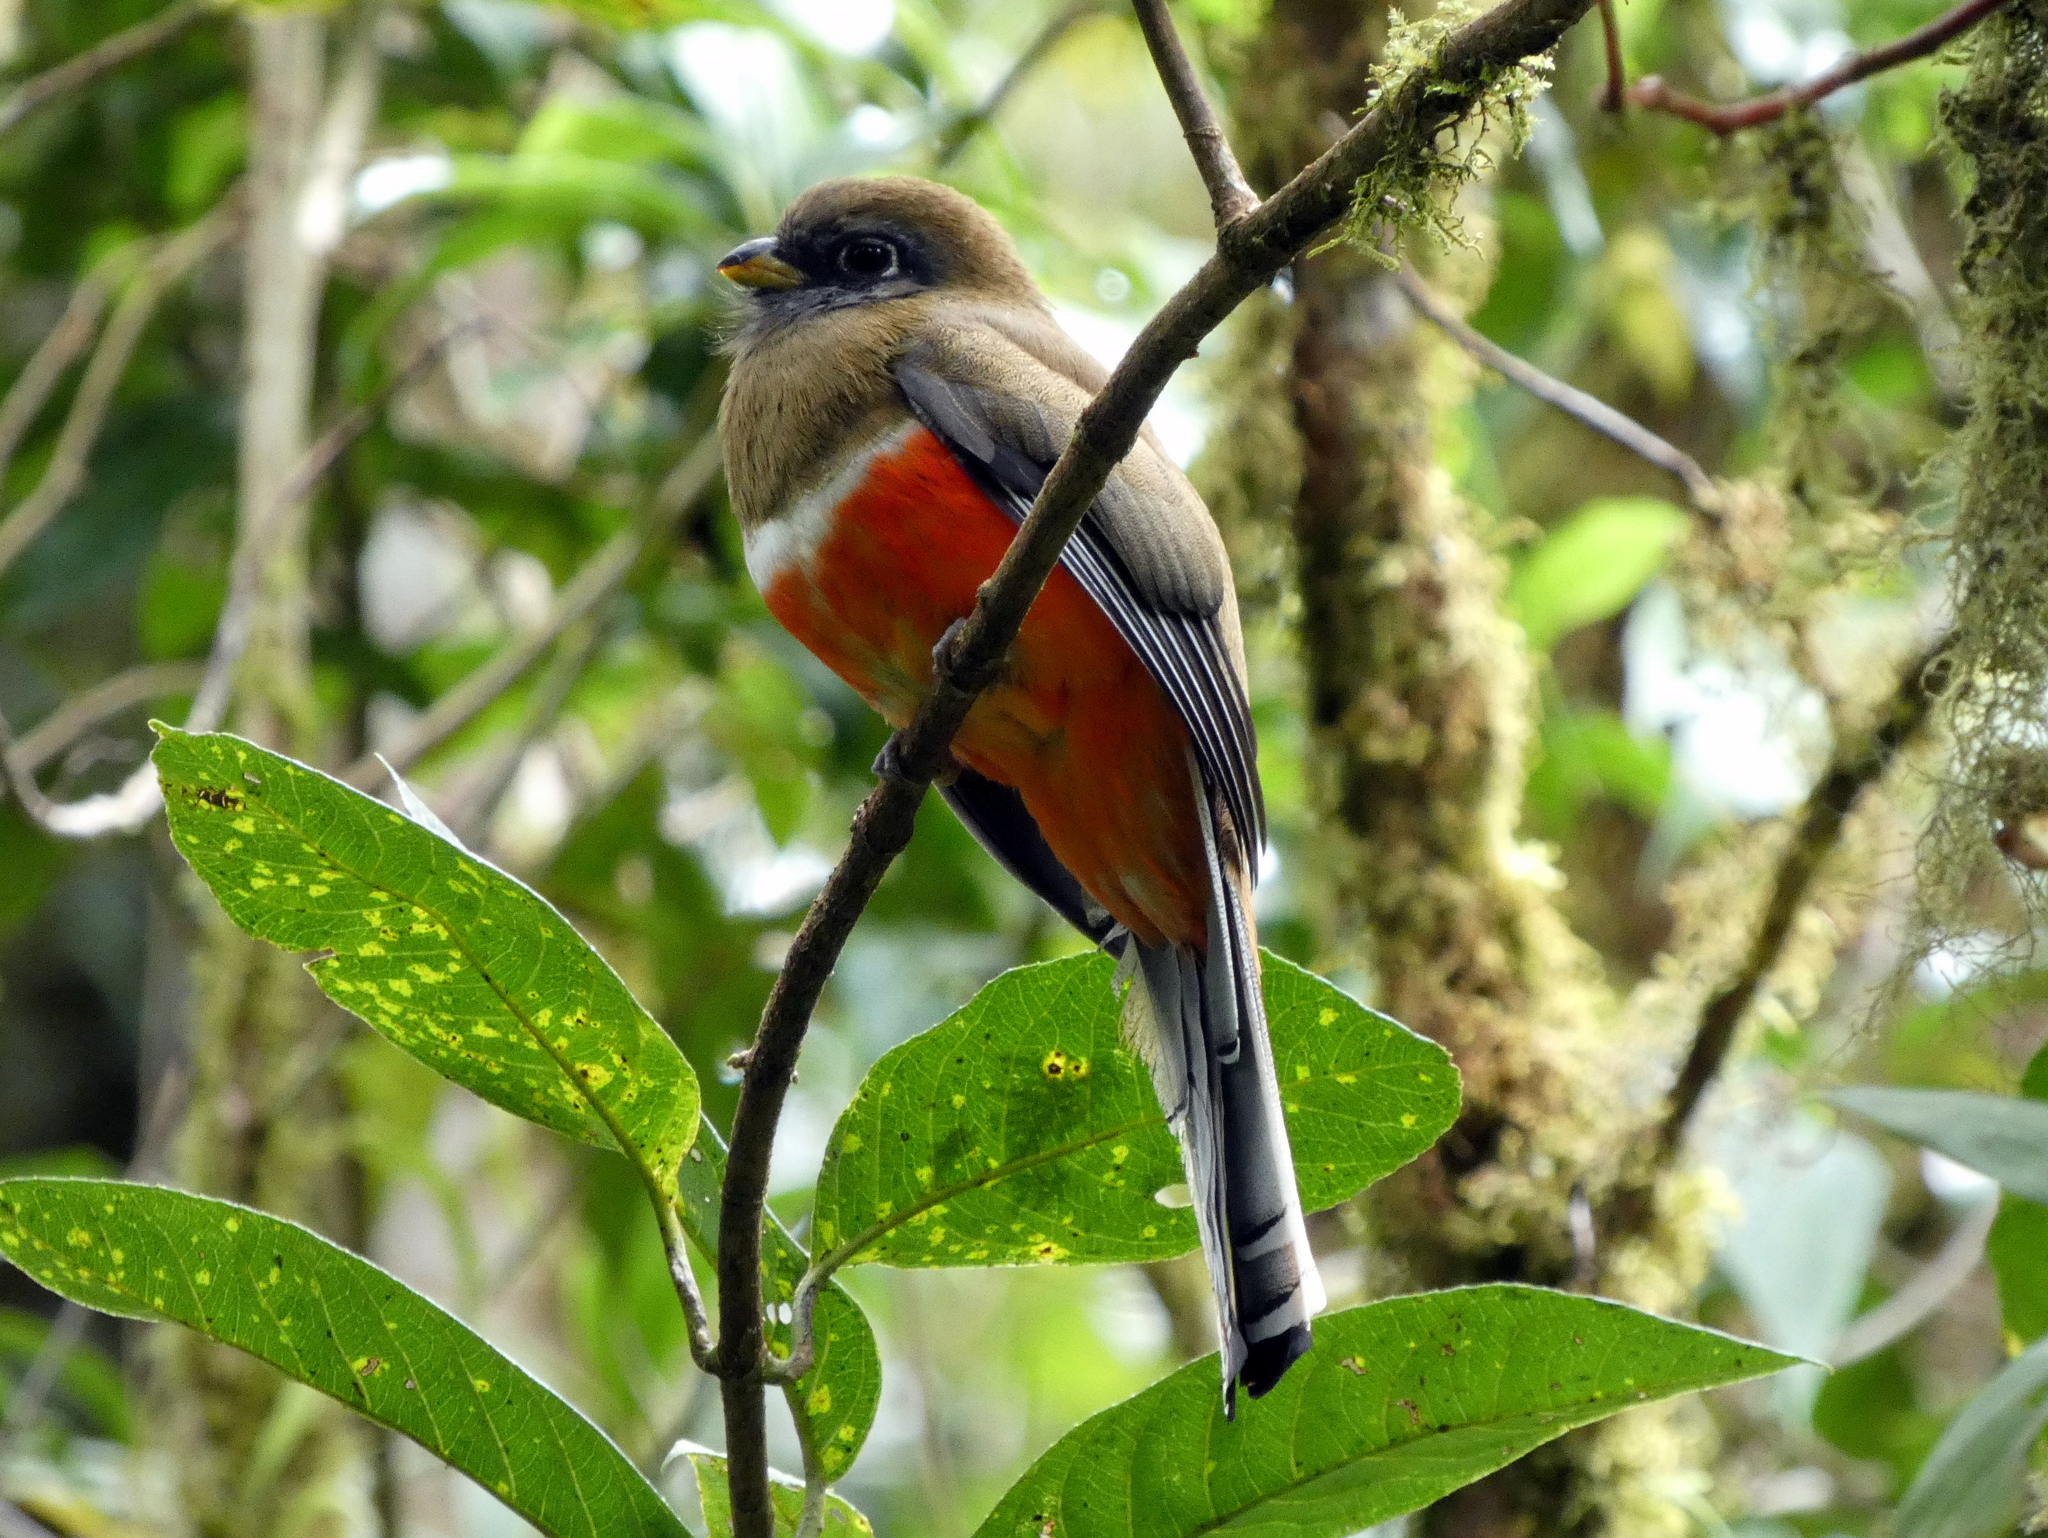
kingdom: Animalia
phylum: Chordata
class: Aves
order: Trogoniformes
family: Trogonidae
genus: Trogon
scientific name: Trogon collaris
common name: Collared trogon
